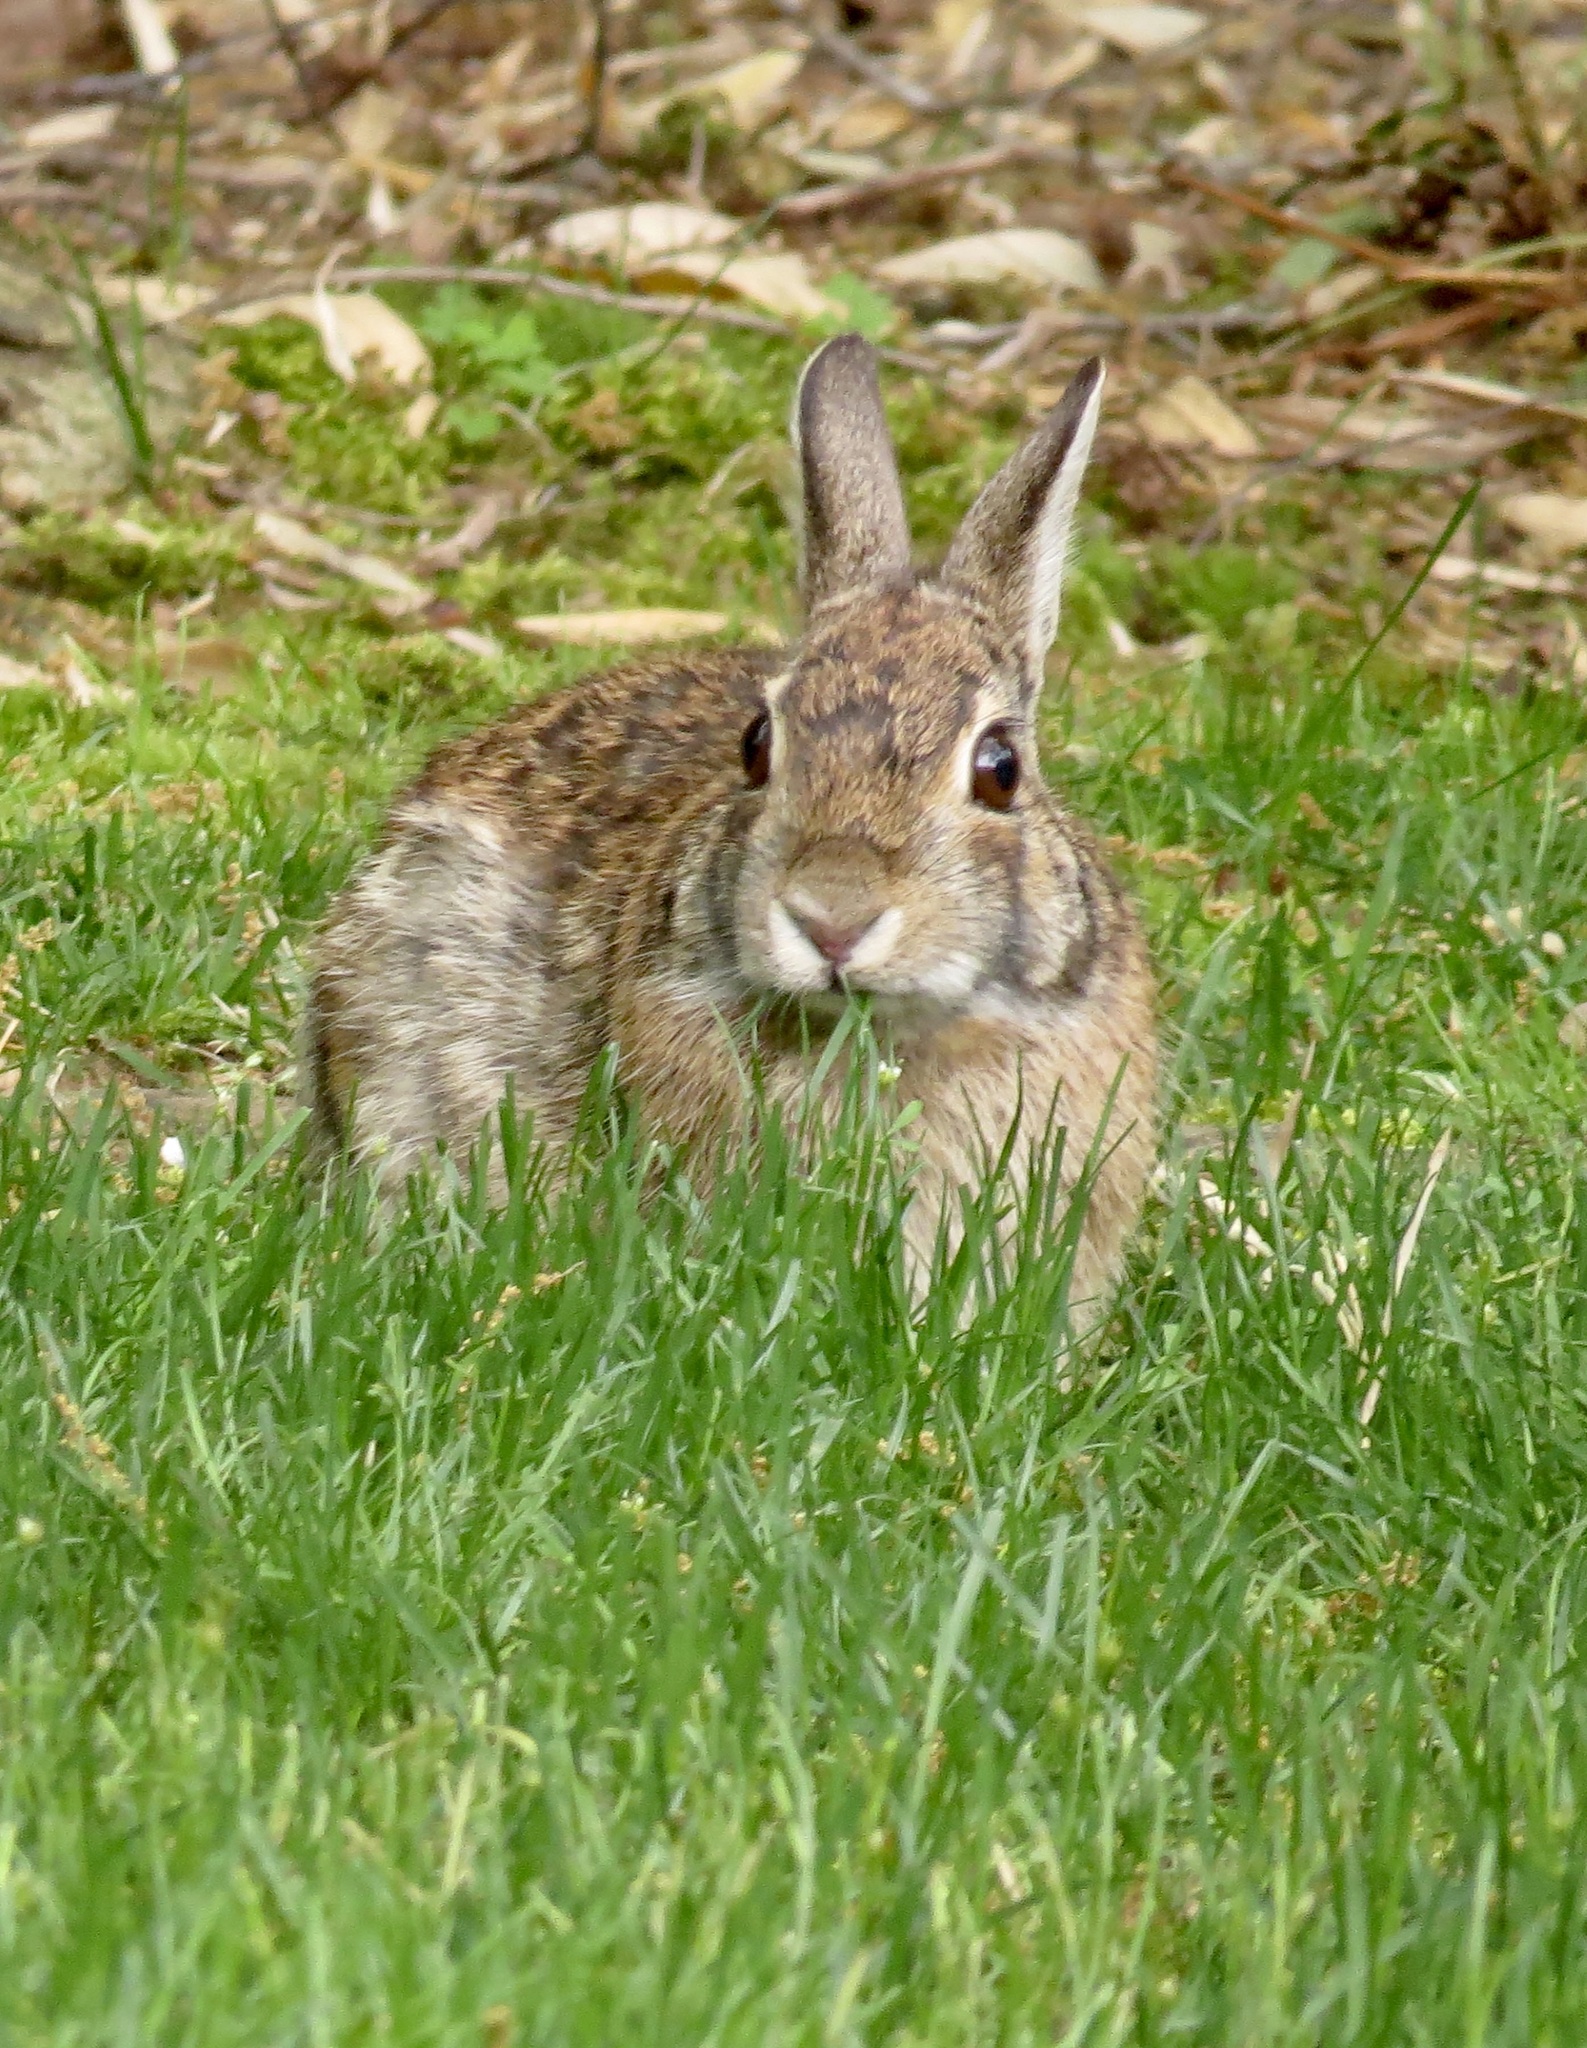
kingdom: Animalia
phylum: Chordata
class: Mammalia
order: Lagomorpha
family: Leporidae
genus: Sylvilagus
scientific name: Sylvilagus floridanus
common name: Eastern cottontail
